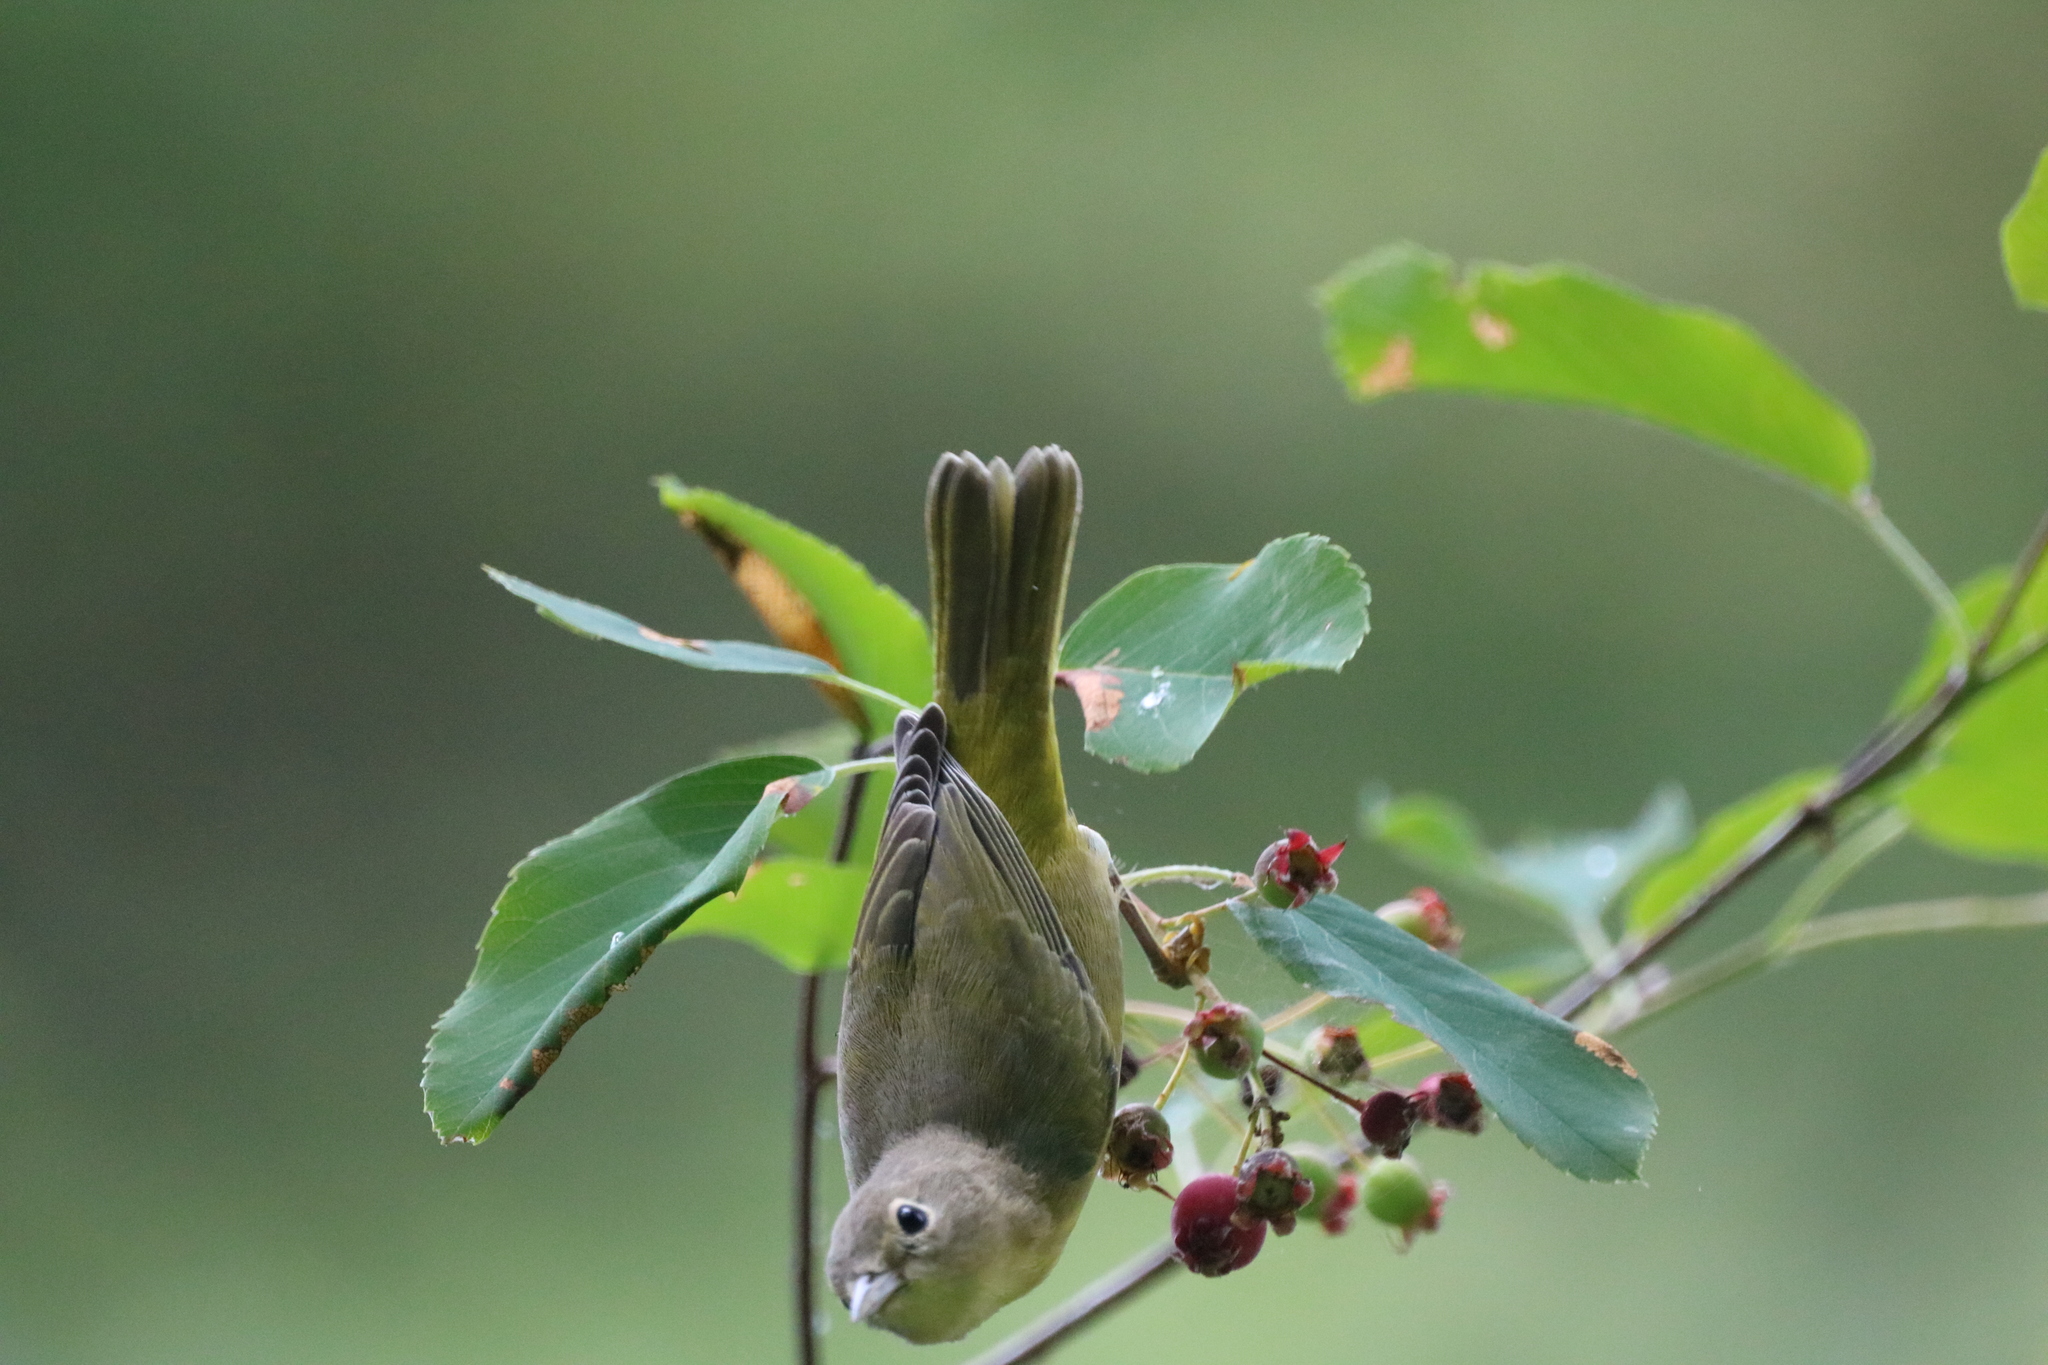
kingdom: Animalia
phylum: Chordata
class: Aves
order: Passeriformes
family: Parulidae
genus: Leiothlypis
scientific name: Leiothlypis ruficapilla
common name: Nashville warbler
